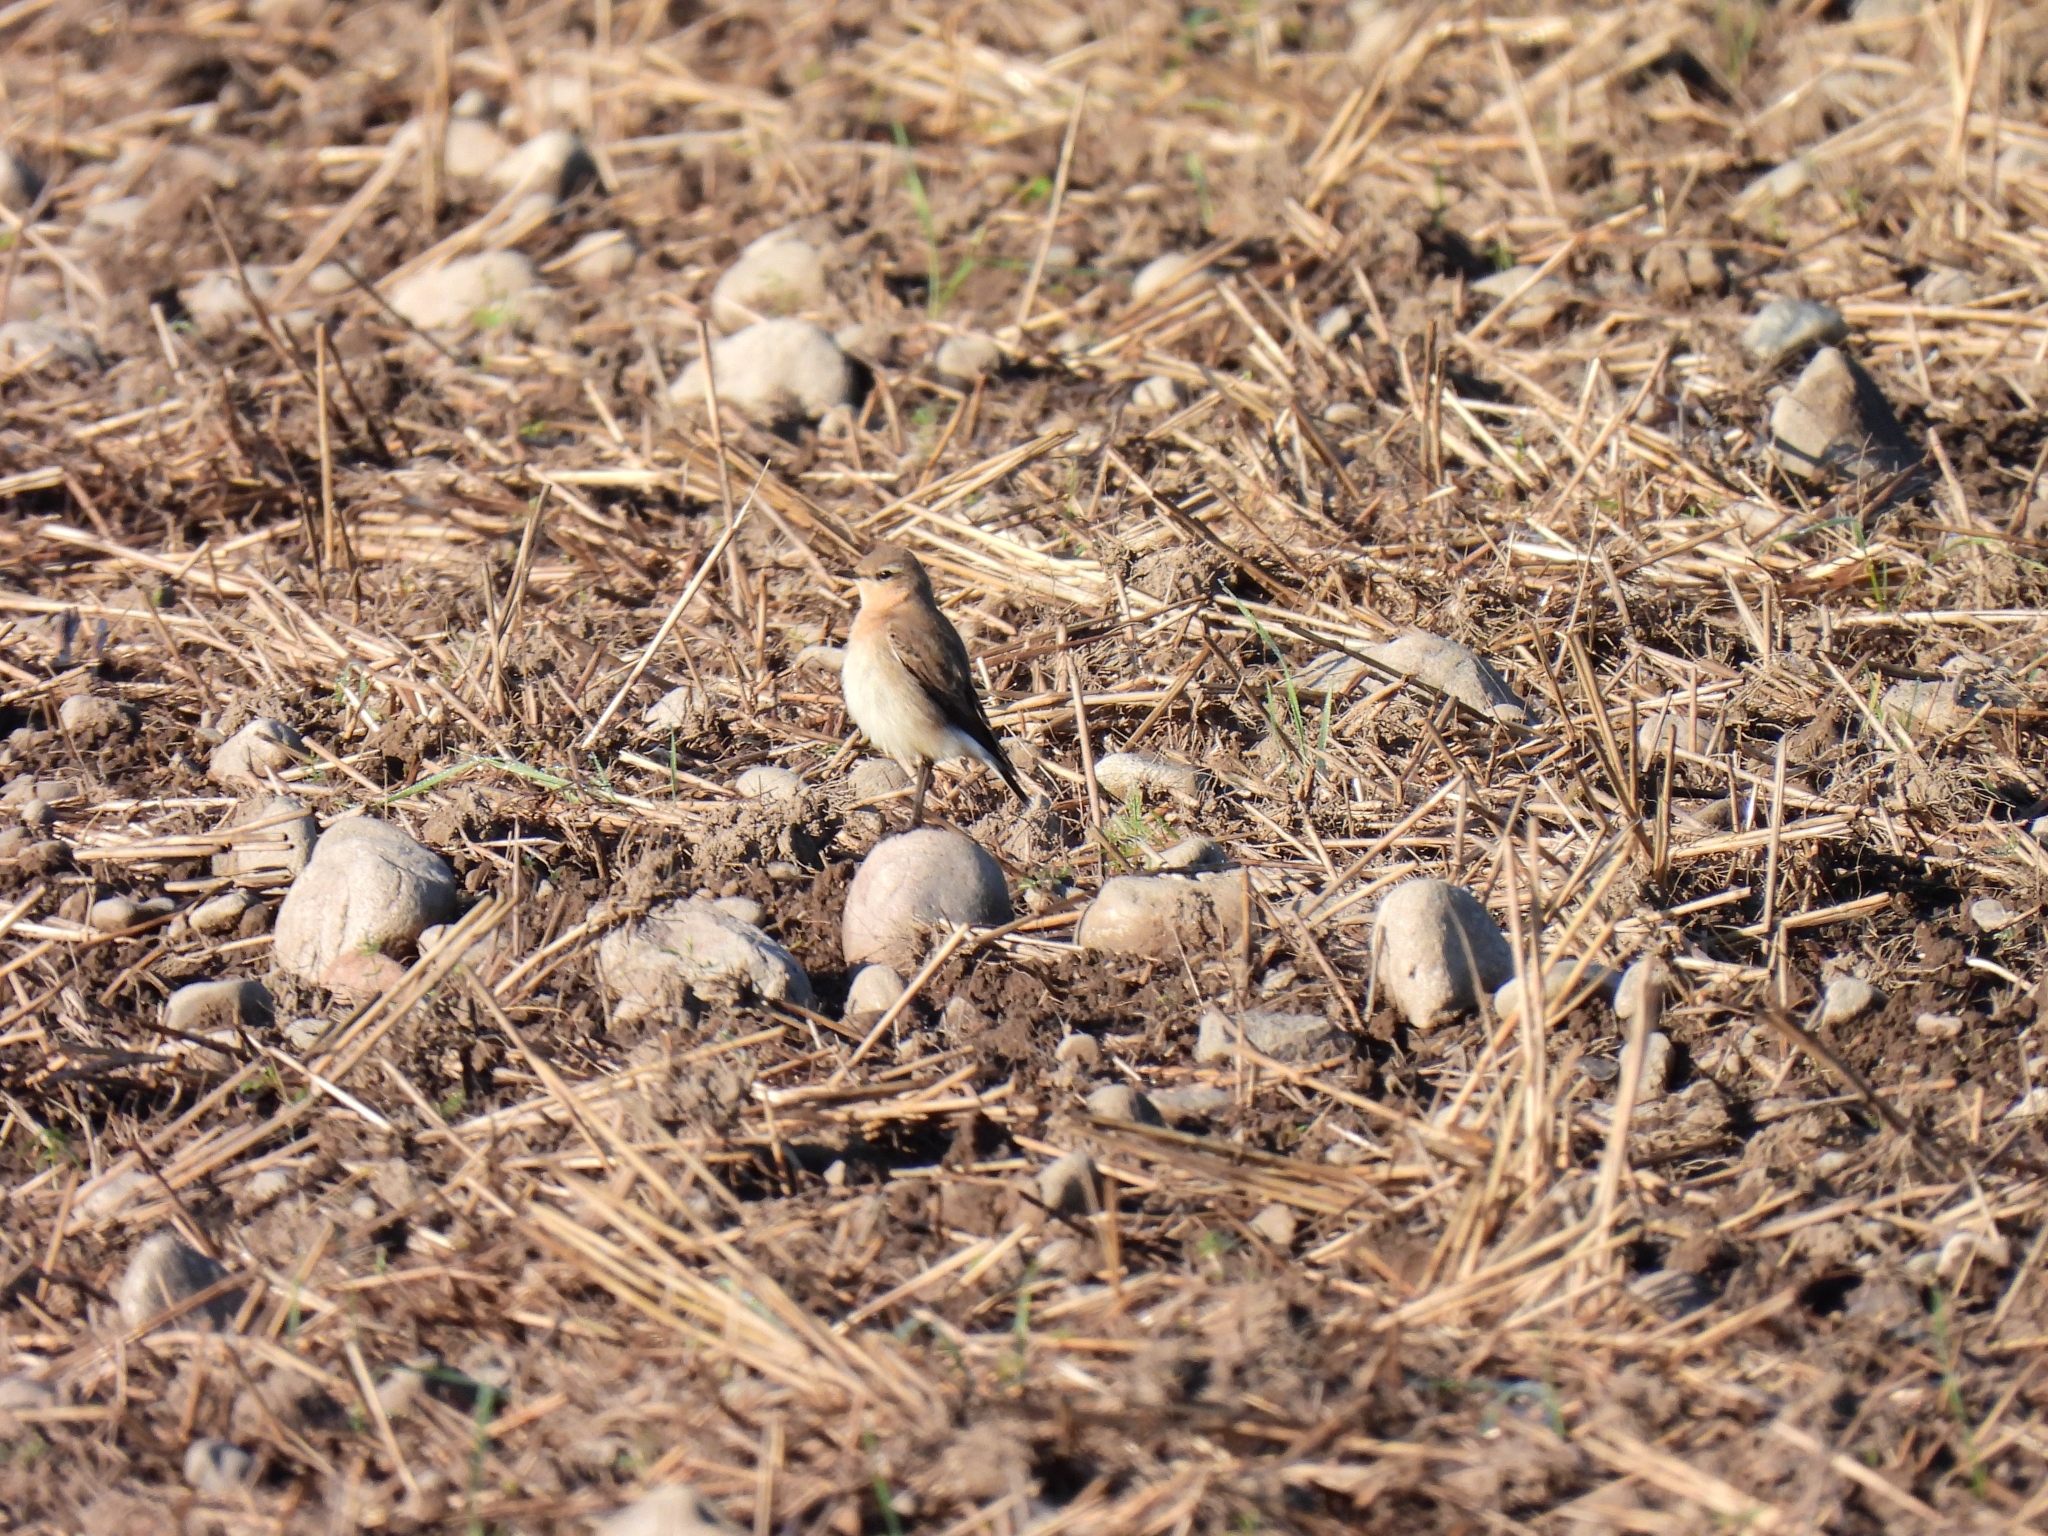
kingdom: Animalia
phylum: Chordata
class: Aves
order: Passeriformes
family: Muscicapidae
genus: Oenanthe
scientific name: Oenanthe oenanthe
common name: Northern wheatear
